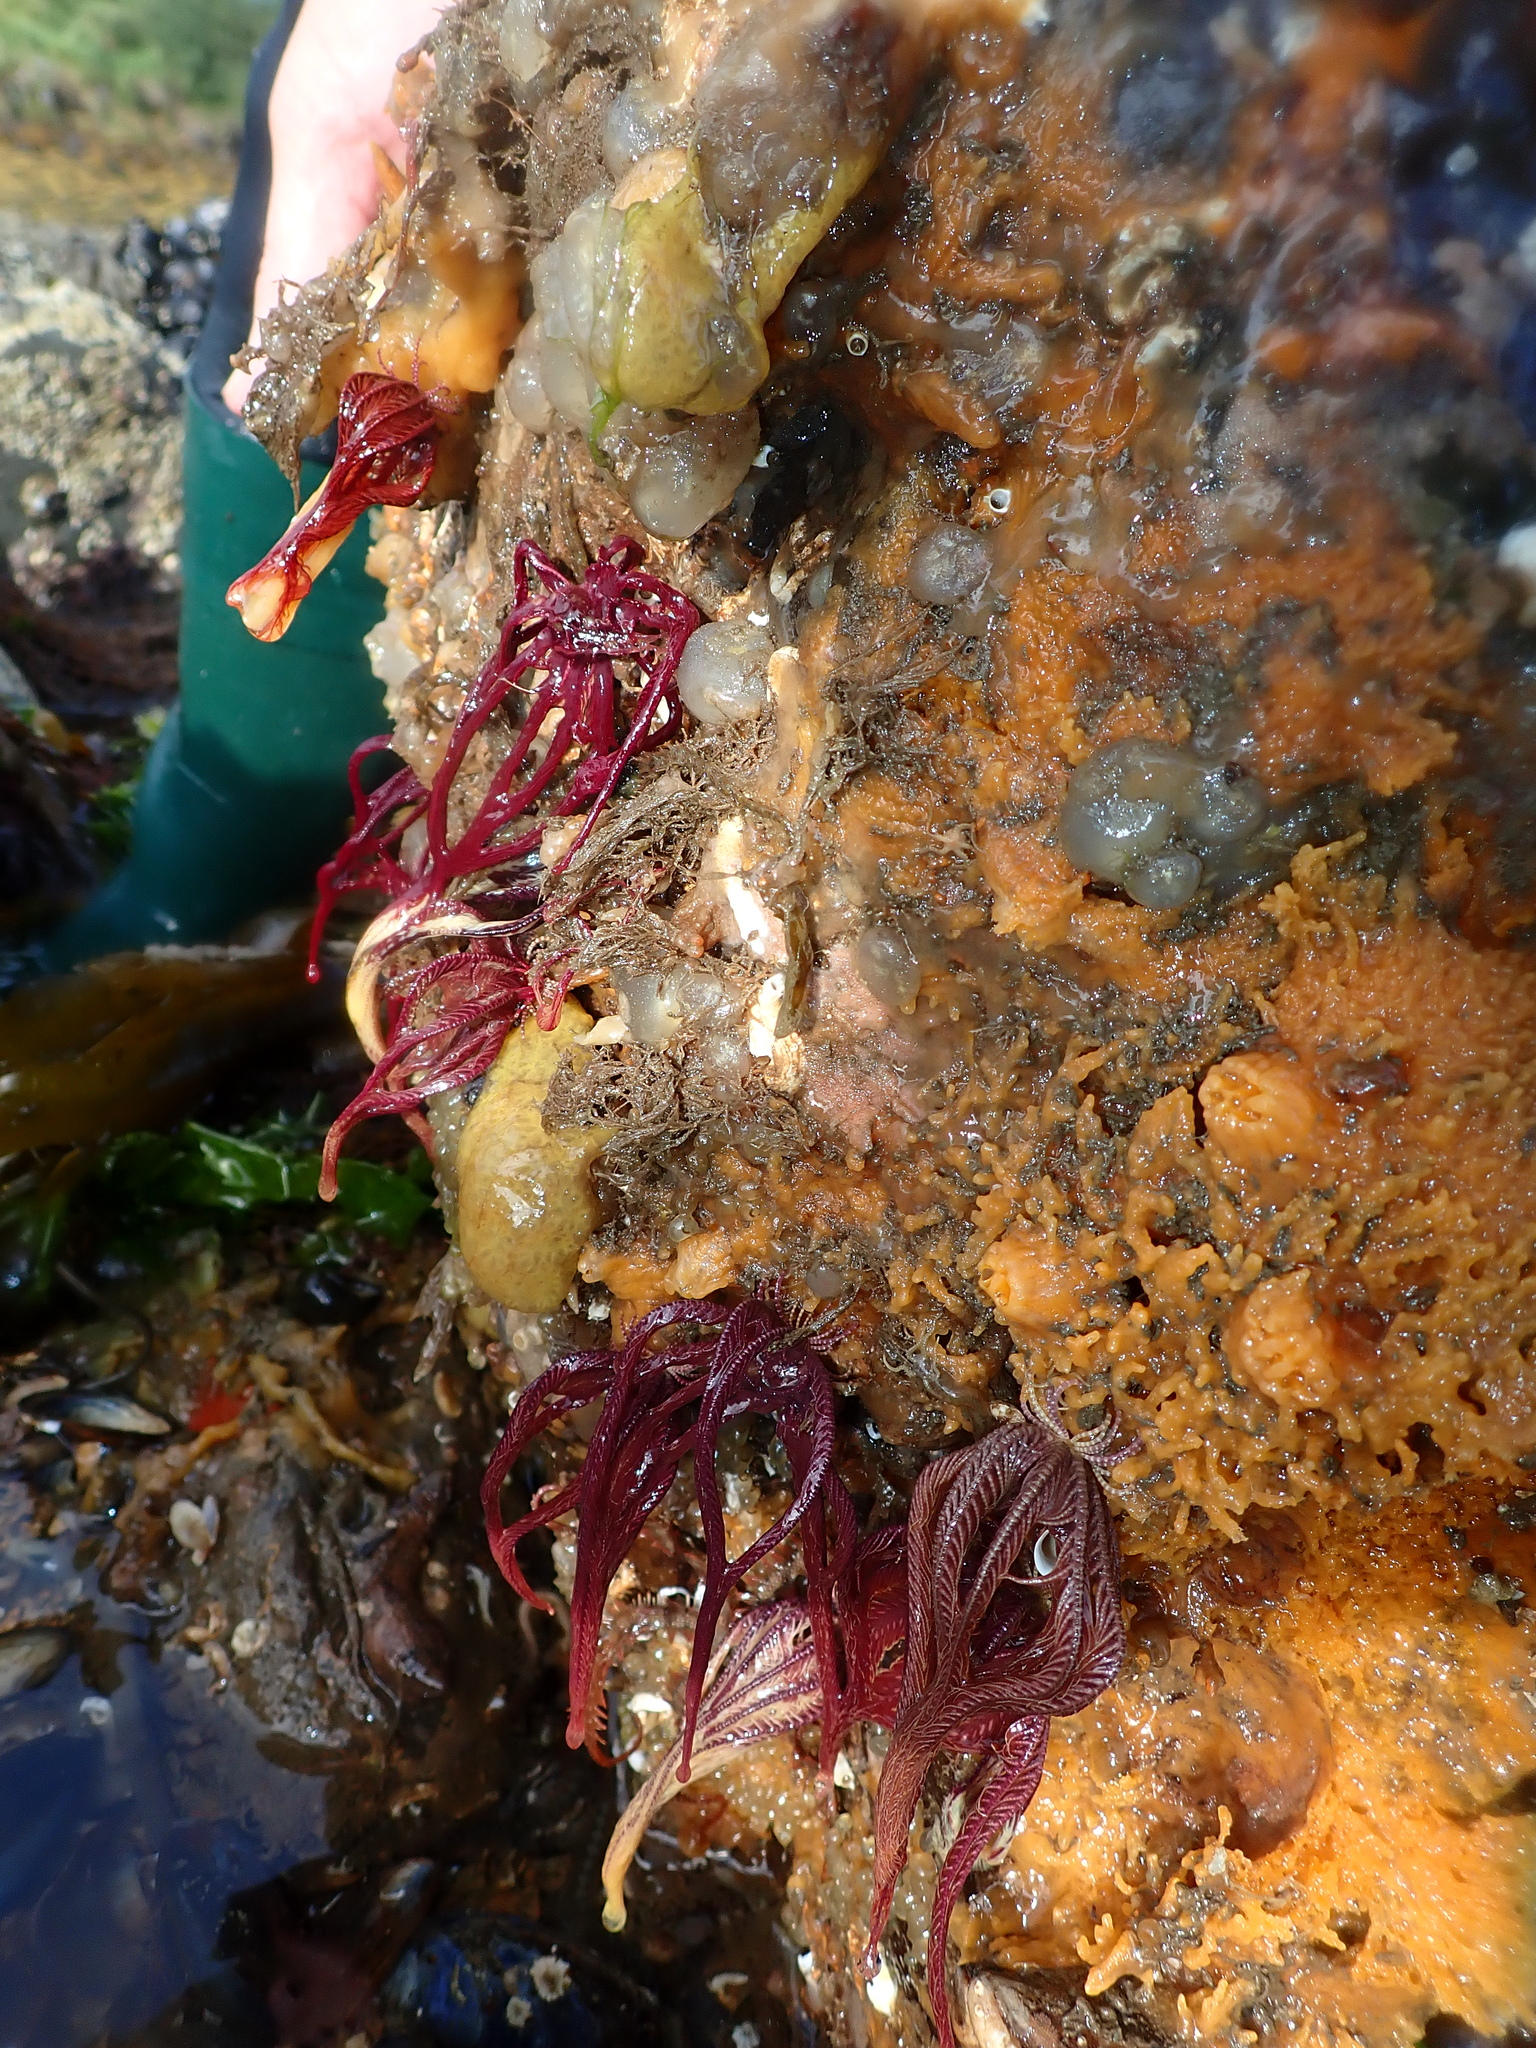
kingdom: Animalia
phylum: Echinodermata
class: Crinoidea
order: Comatulida
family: Antedonidae
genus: Antedon
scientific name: Antedon bifida
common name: Rosy feather-star
